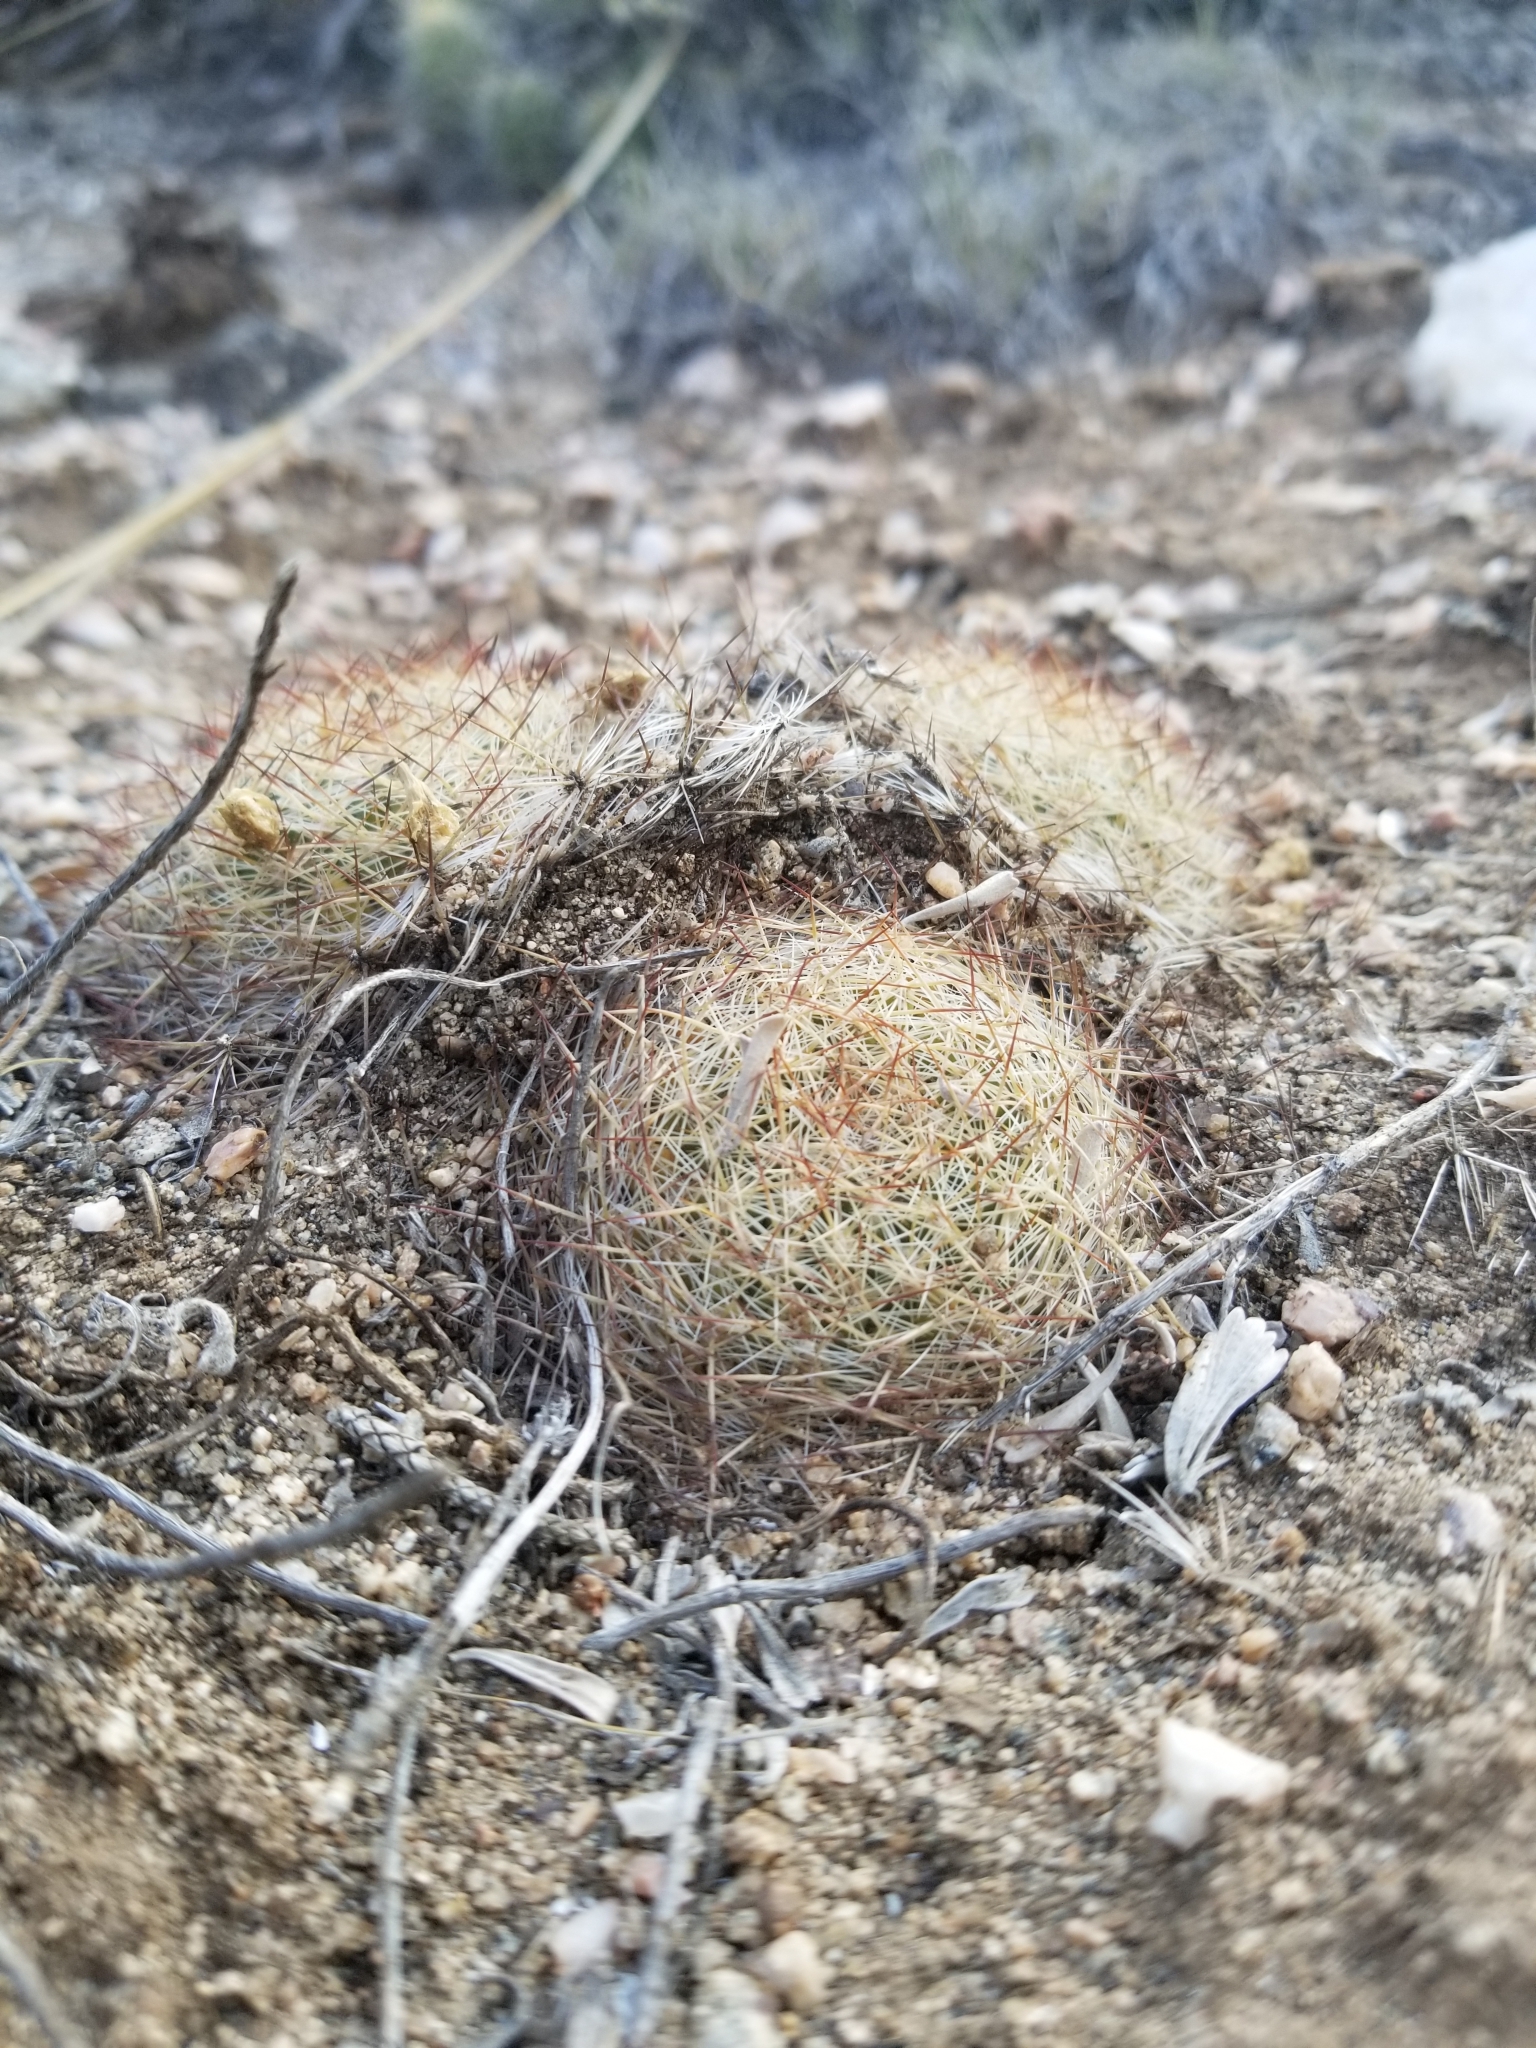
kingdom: Plantae
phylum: Tracheophyta
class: Magnoliopsida
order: Caryophyllales
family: Cactaceae
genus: Pediocactus
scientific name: Pediocactus simpsonii
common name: Simpson's hedgehog cactus
